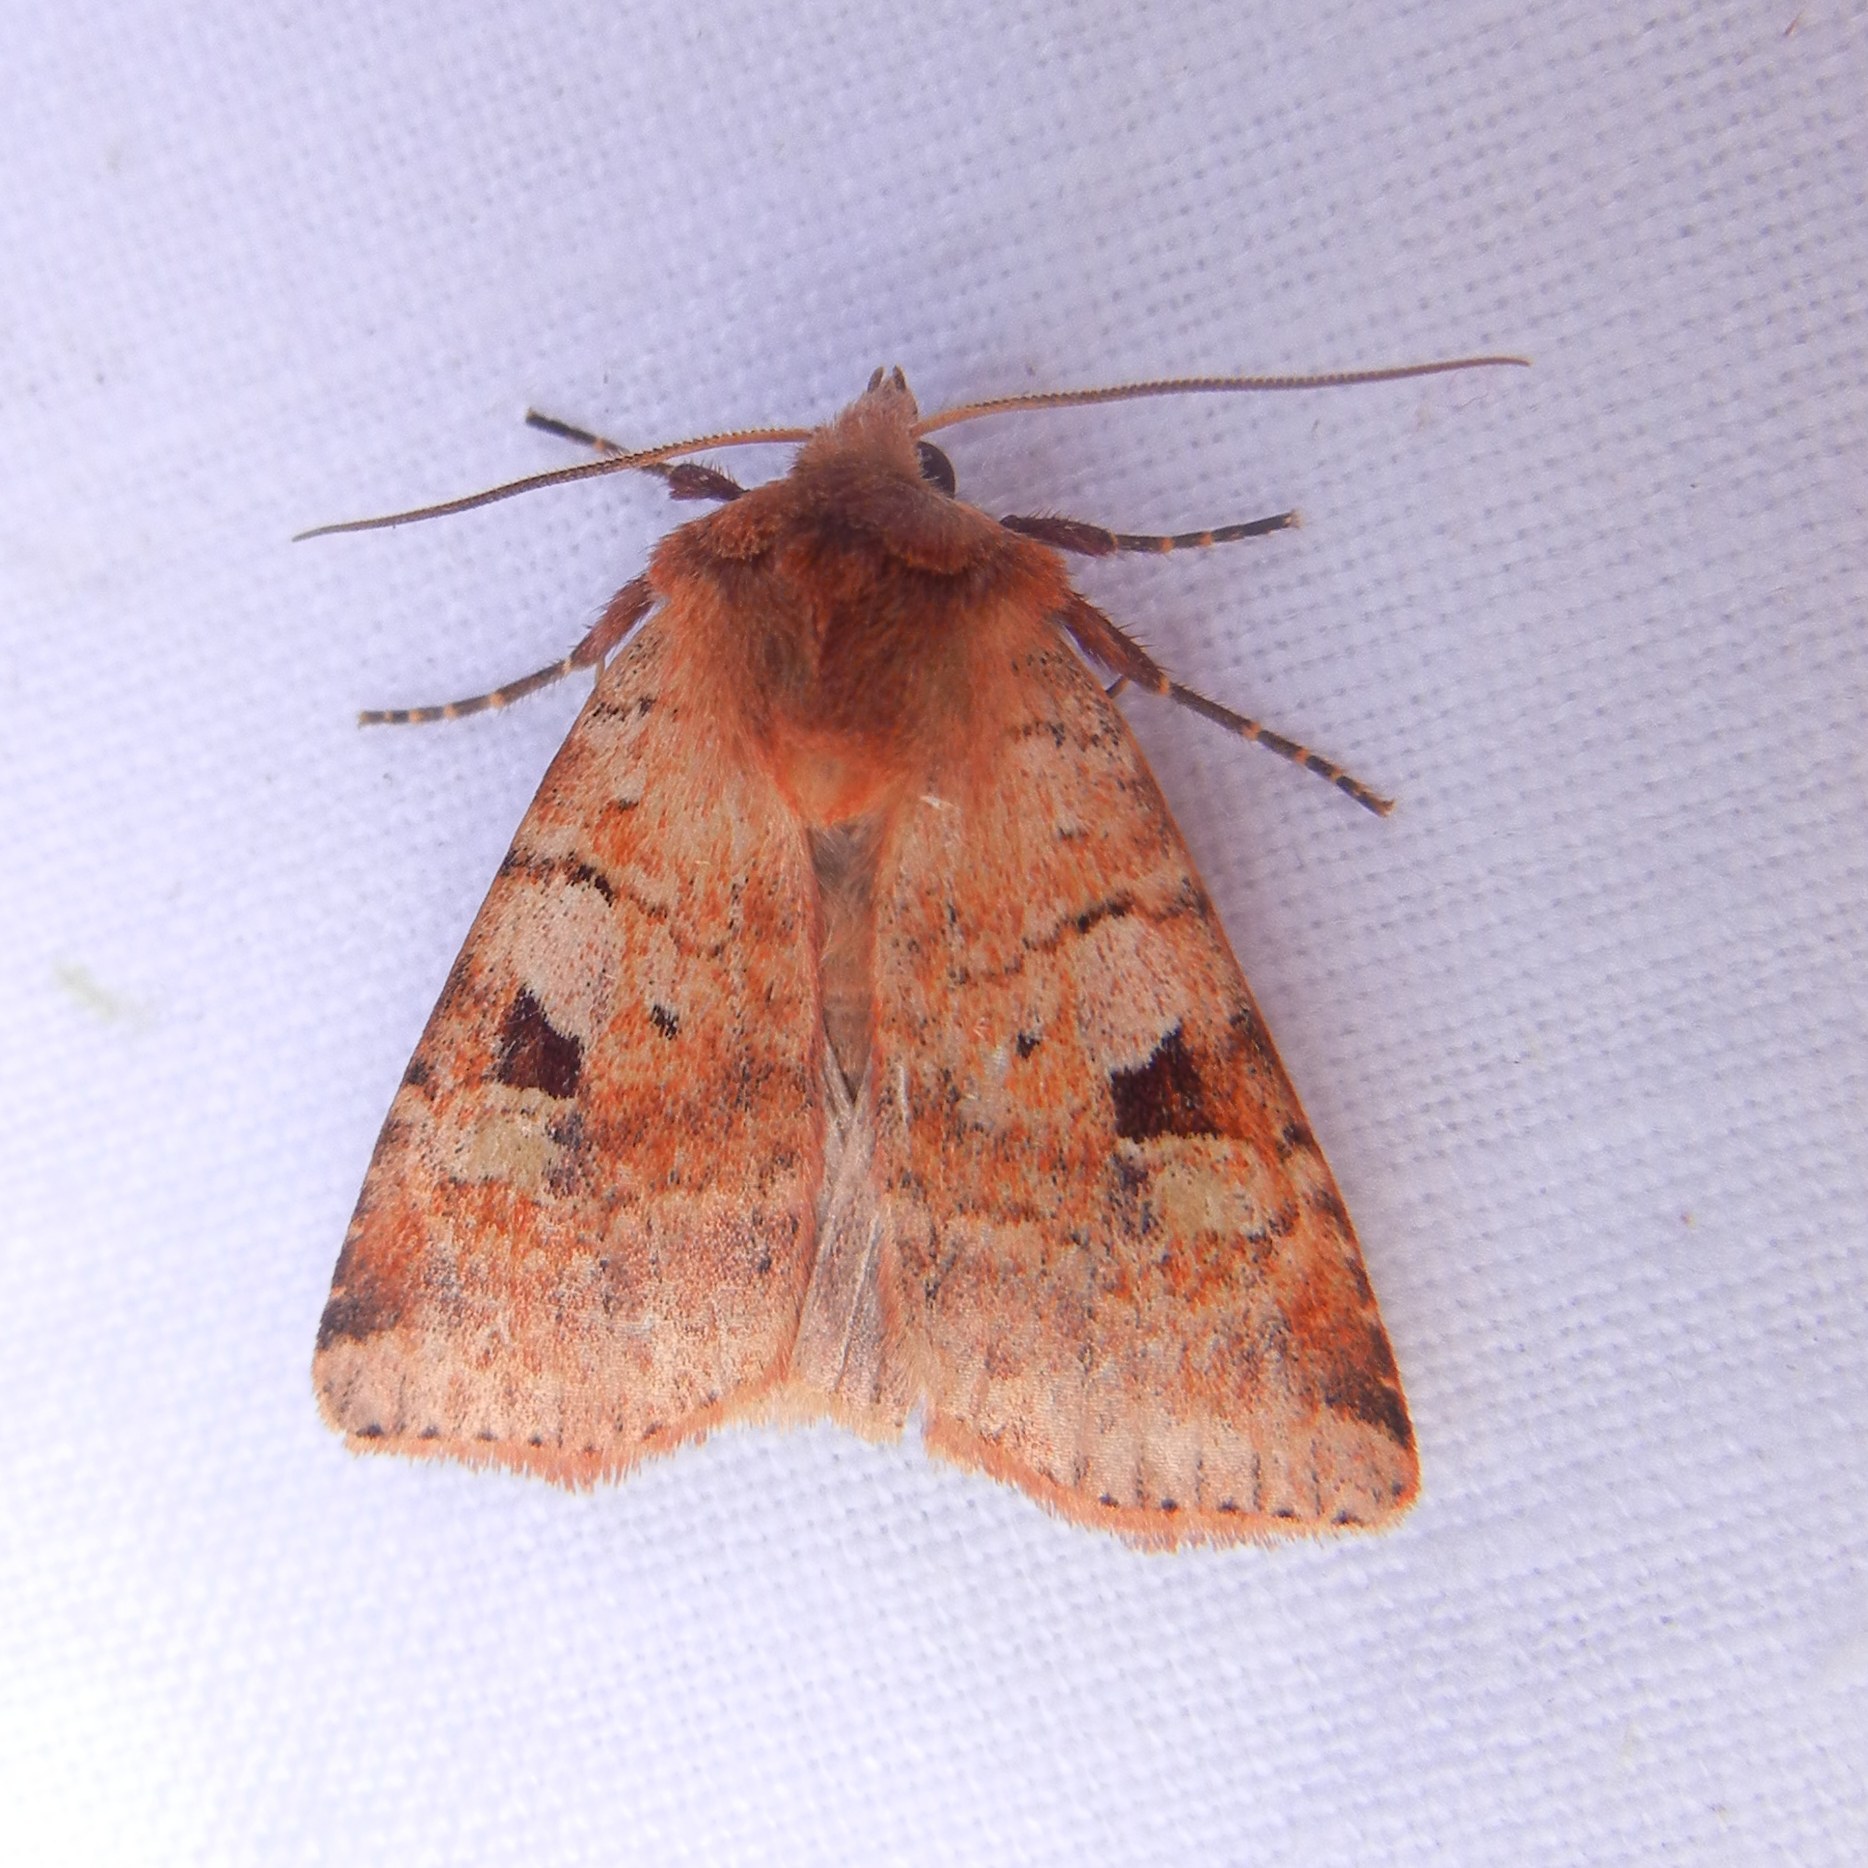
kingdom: Animalia
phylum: Arthropoda
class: Insecta
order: Lepidoptera
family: Noctuidae
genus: Diarsia
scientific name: Diarsia mendica
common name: Ingrailed clay
